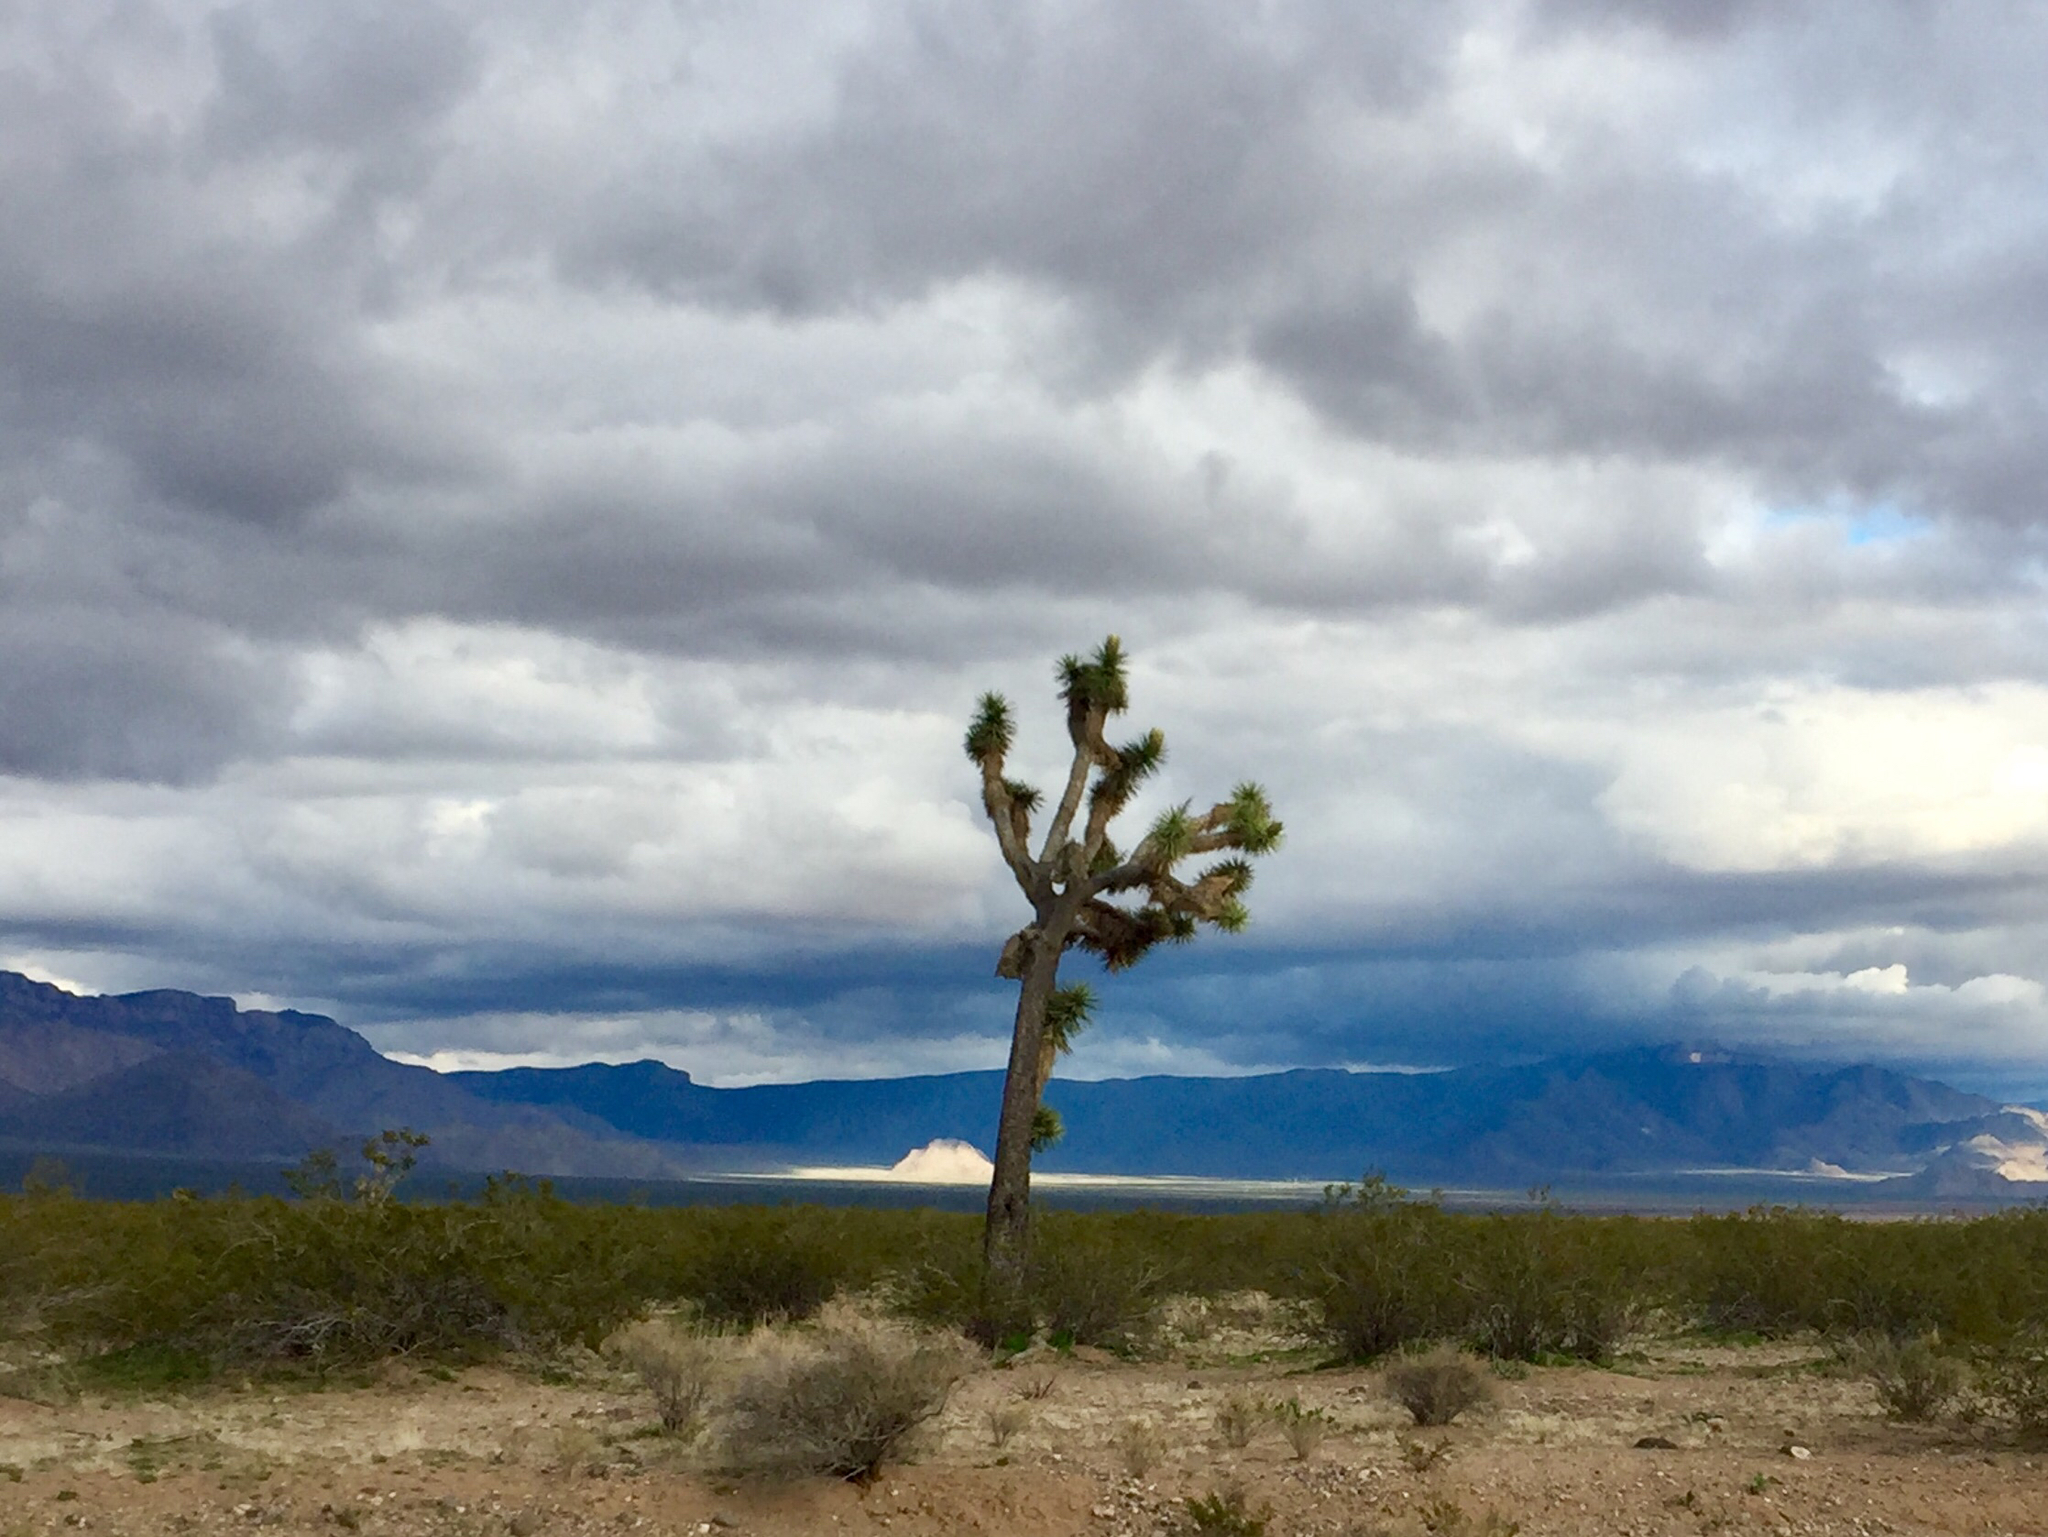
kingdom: Plantae
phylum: Tracheophyta
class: Liliopsida
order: Asparagales
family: Asparagaceae
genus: Yucca
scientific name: Yucca brevifolia
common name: Joshua tree
